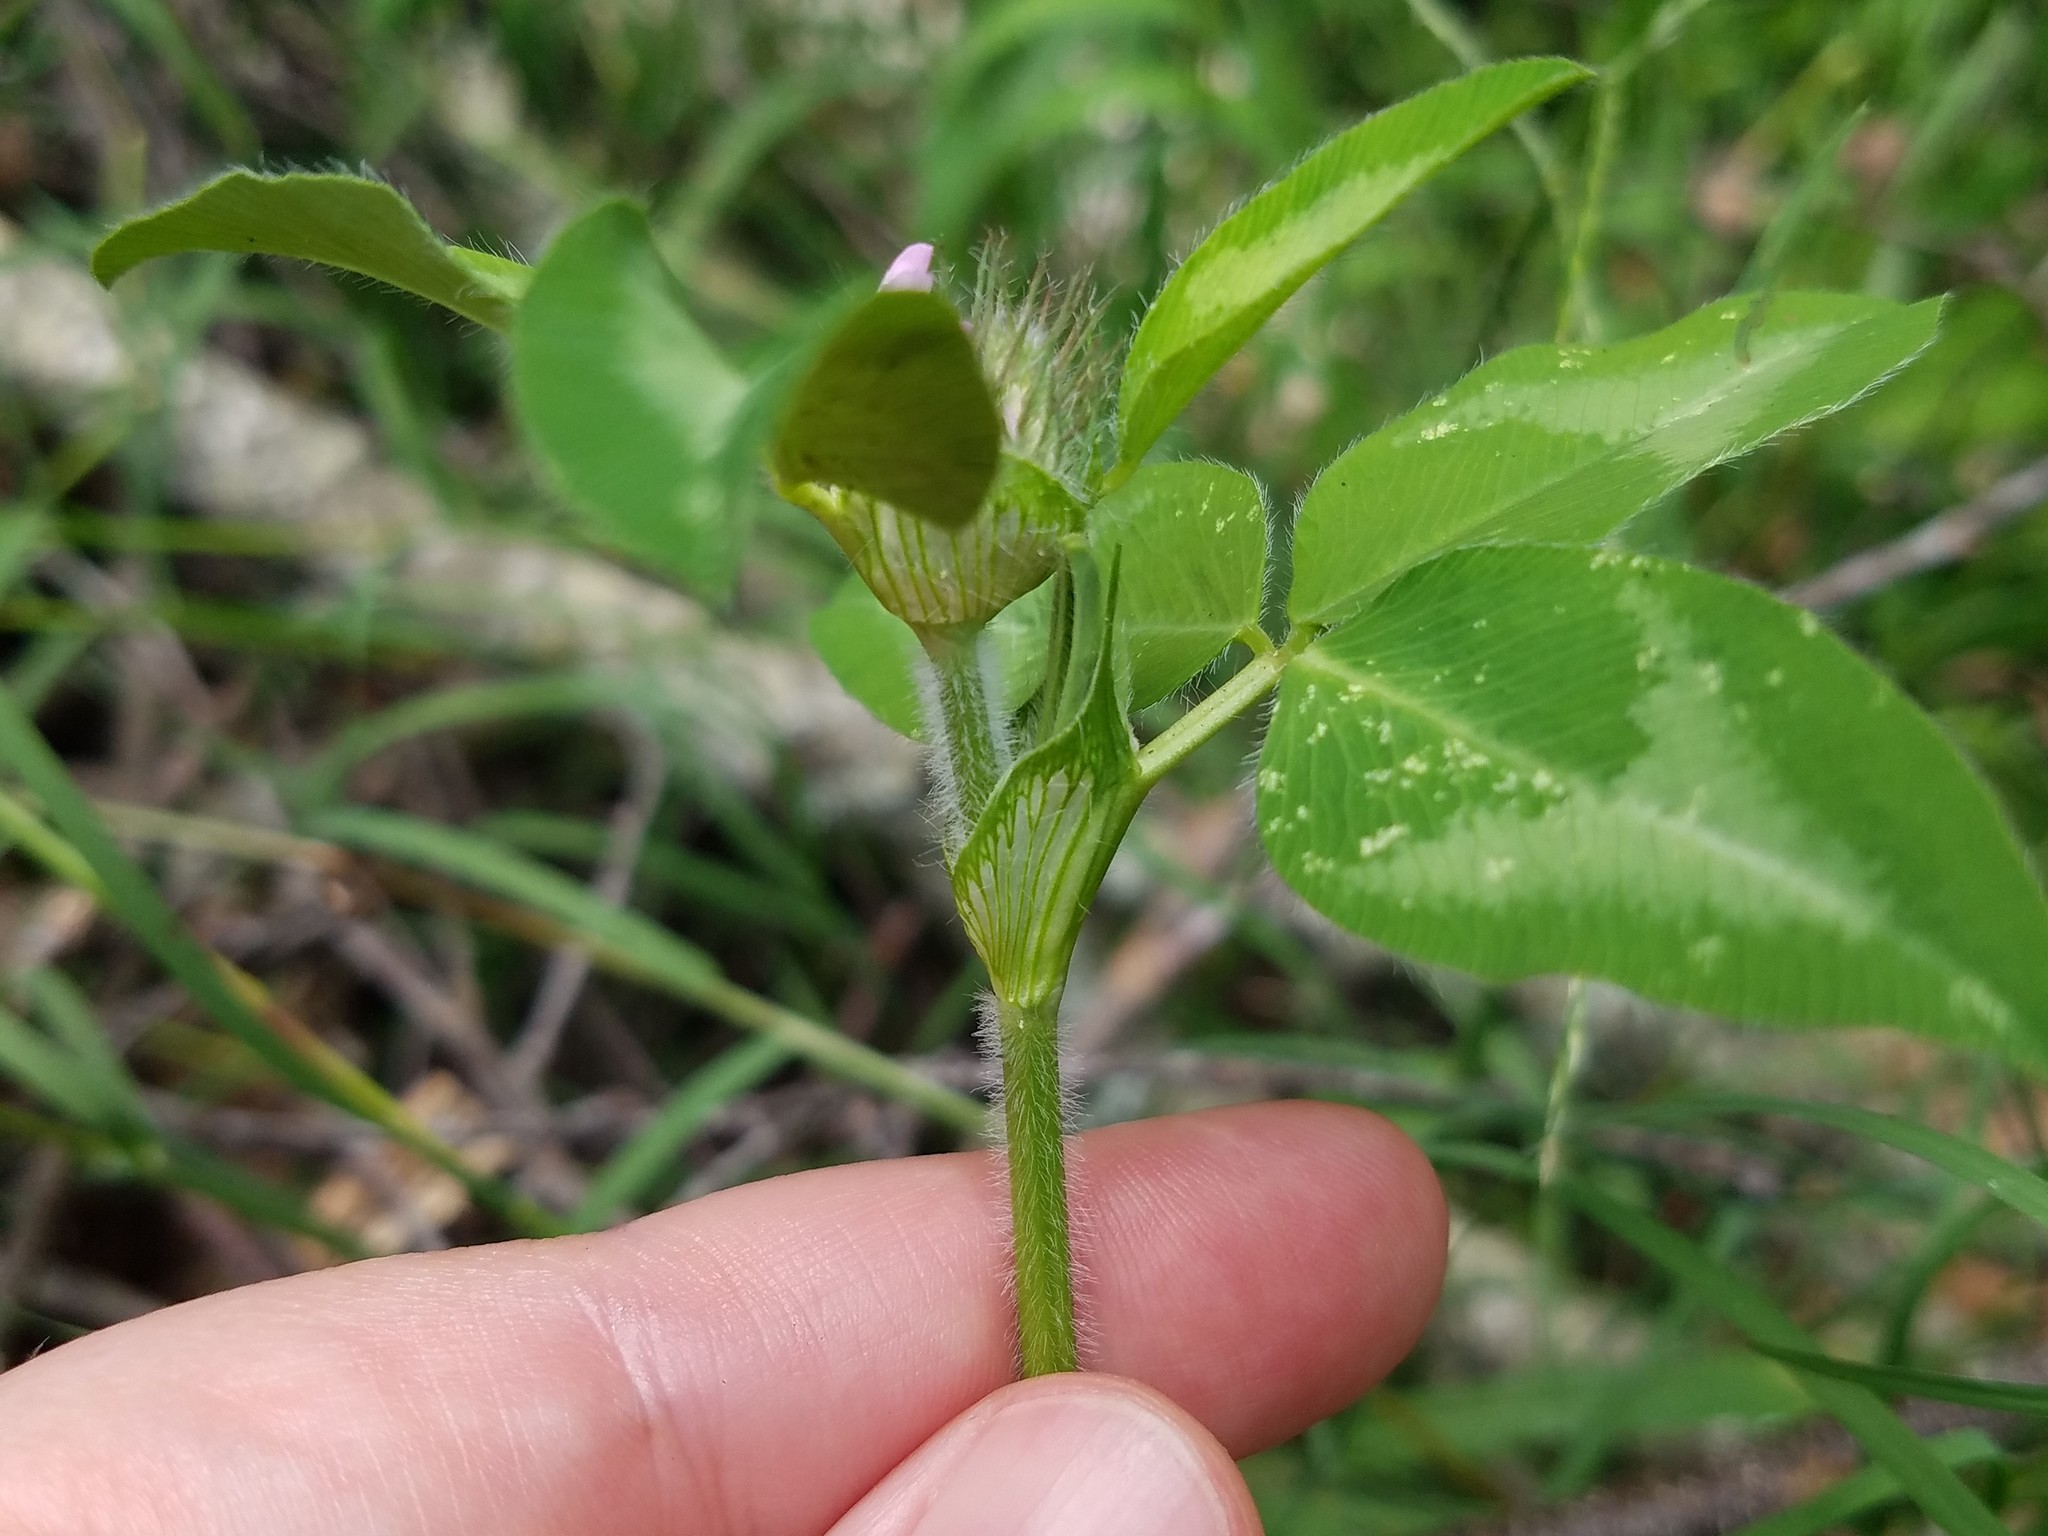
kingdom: Plantae
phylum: Tracheophyta
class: Magnoliopsida
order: Fabales
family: Fabaceae
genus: Trifolium
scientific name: Trifolium pratense
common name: Red clover
